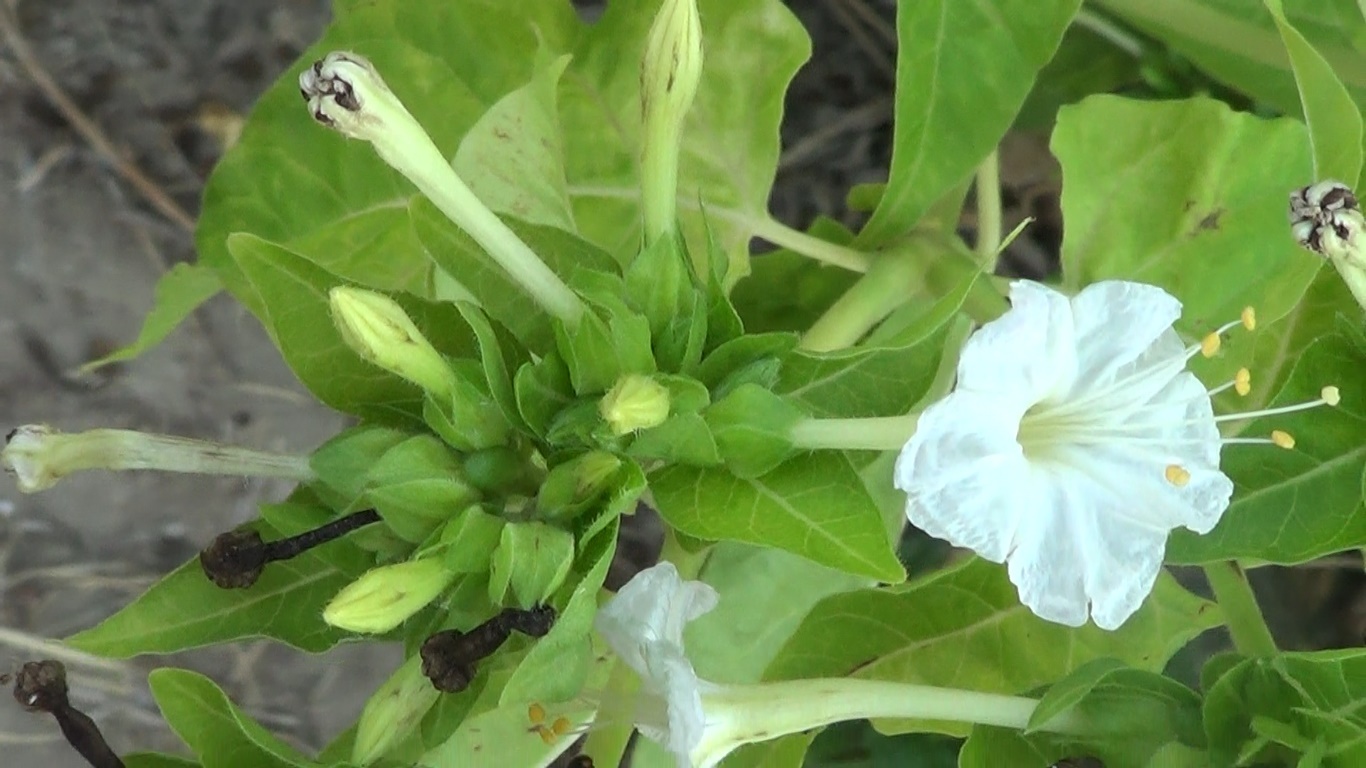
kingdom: Plantae
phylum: Tracheophyta
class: Magnoliopsida
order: Caryophyllales
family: Nyctaginaceae
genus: Mirabilis
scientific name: Mirabilis jalapa
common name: Marvel-of-peru
